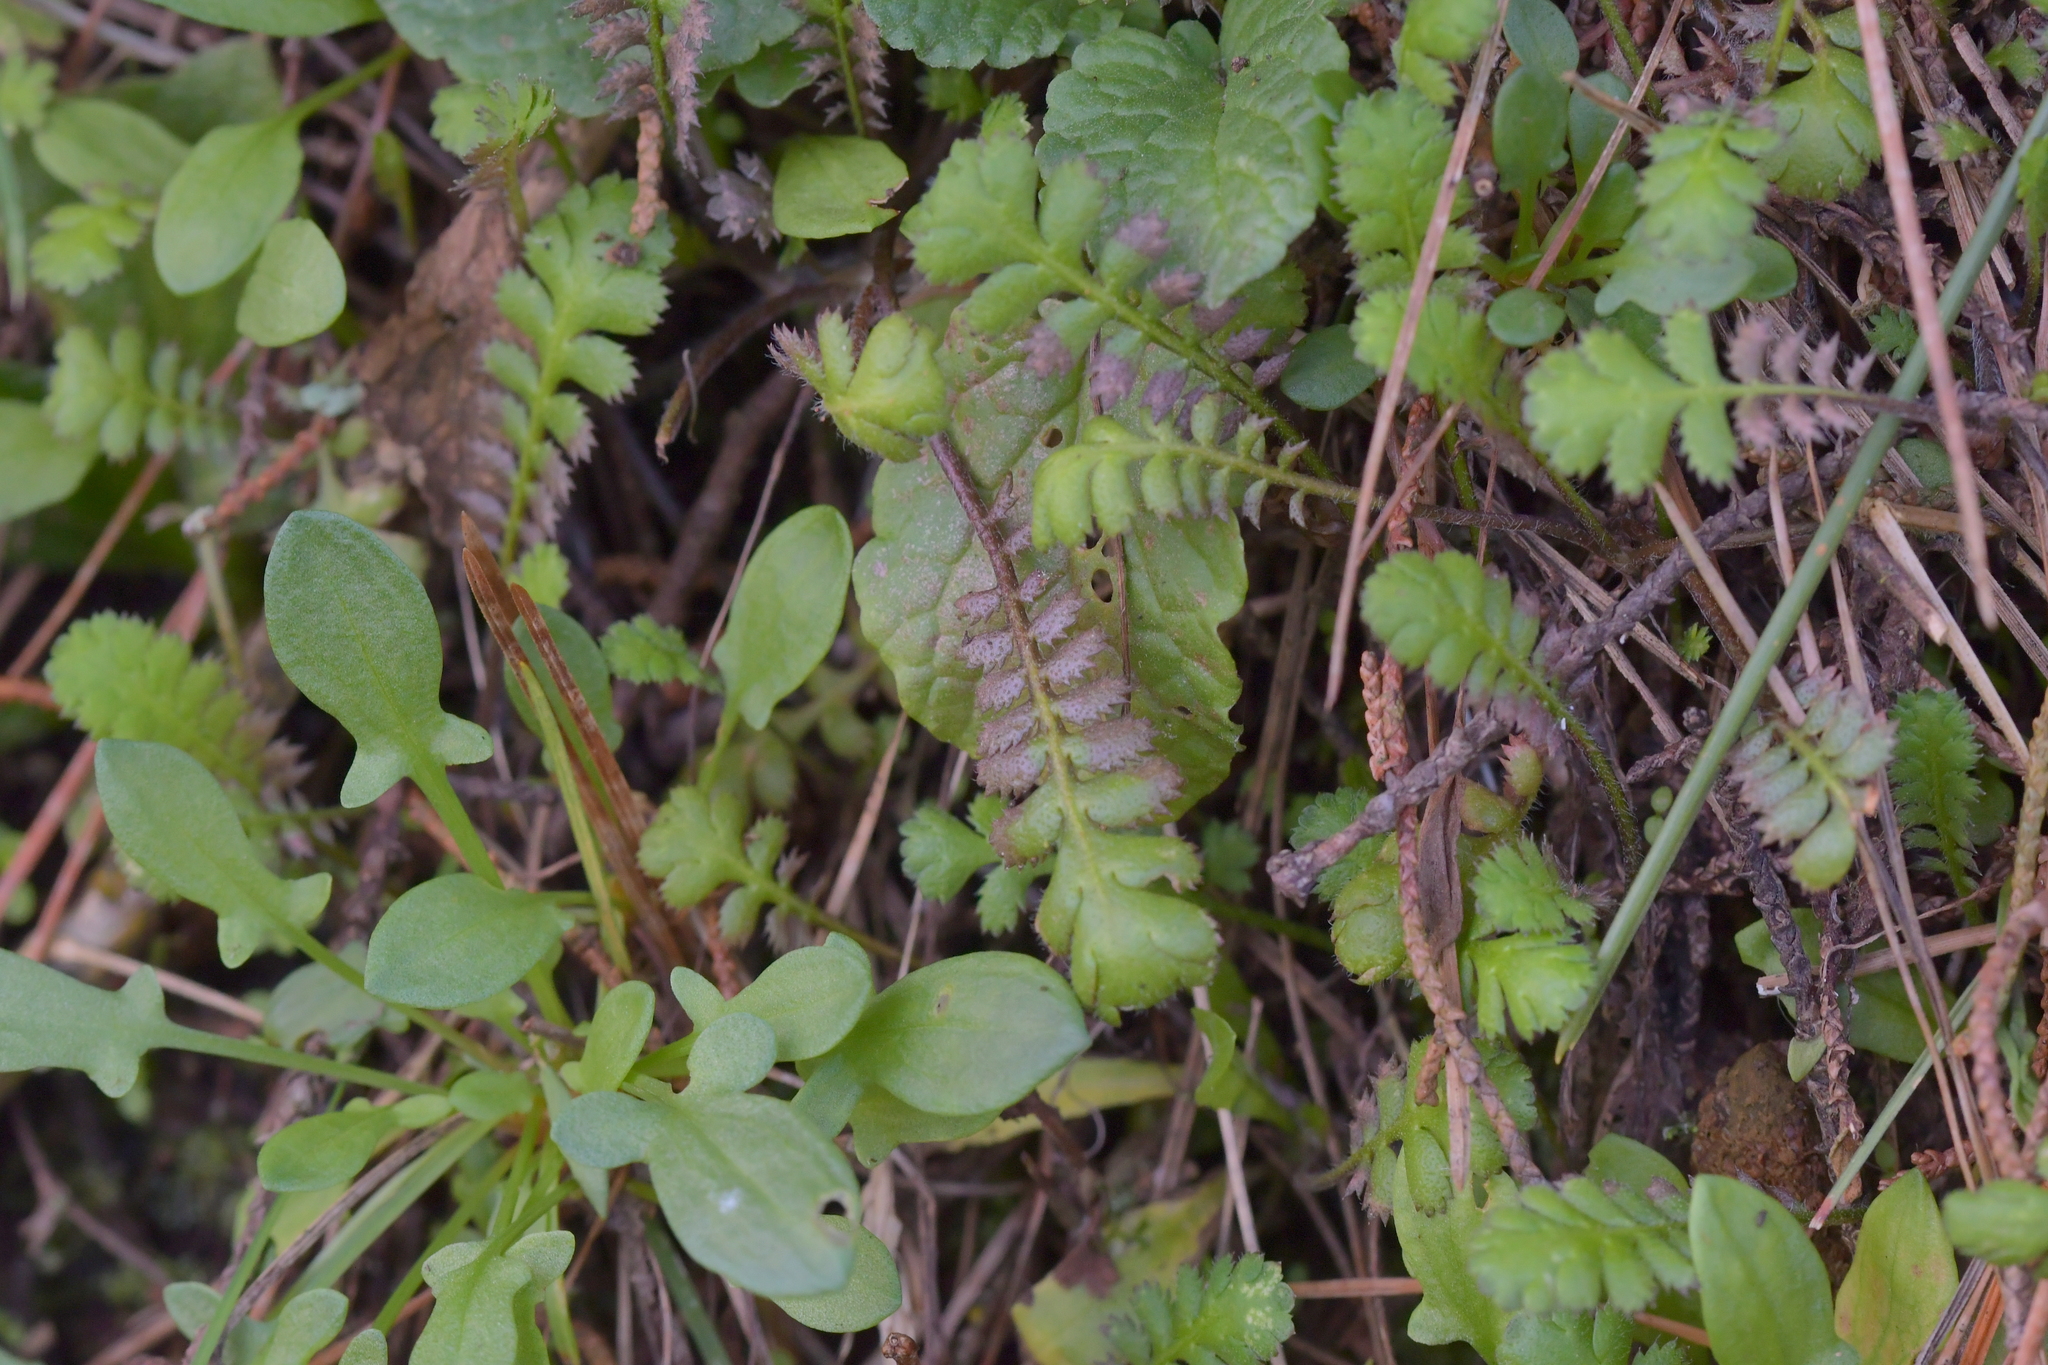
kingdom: Plantae
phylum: Tracheophyta
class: Magnoliopsida
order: Asterales
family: Asteraceae
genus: Leptinella
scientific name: Leptinella squalida
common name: New zealand brass-buttons
